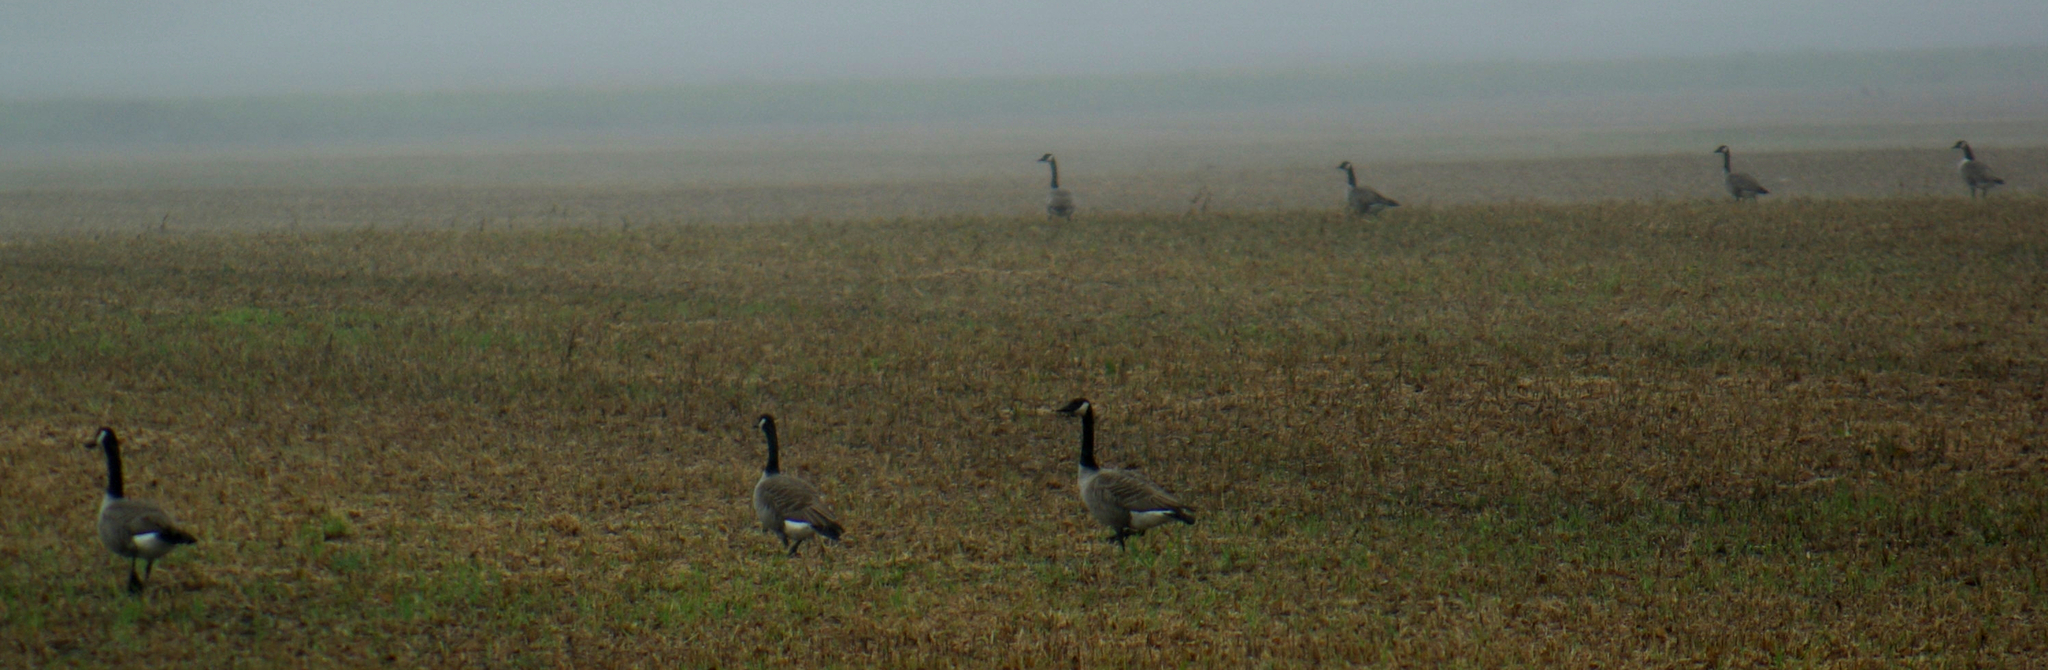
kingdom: Animalia
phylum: Chordata
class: Aves
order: Anseriformes
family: Anatidae
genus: Branta
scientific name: Branta canadensis
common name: Canada goose
